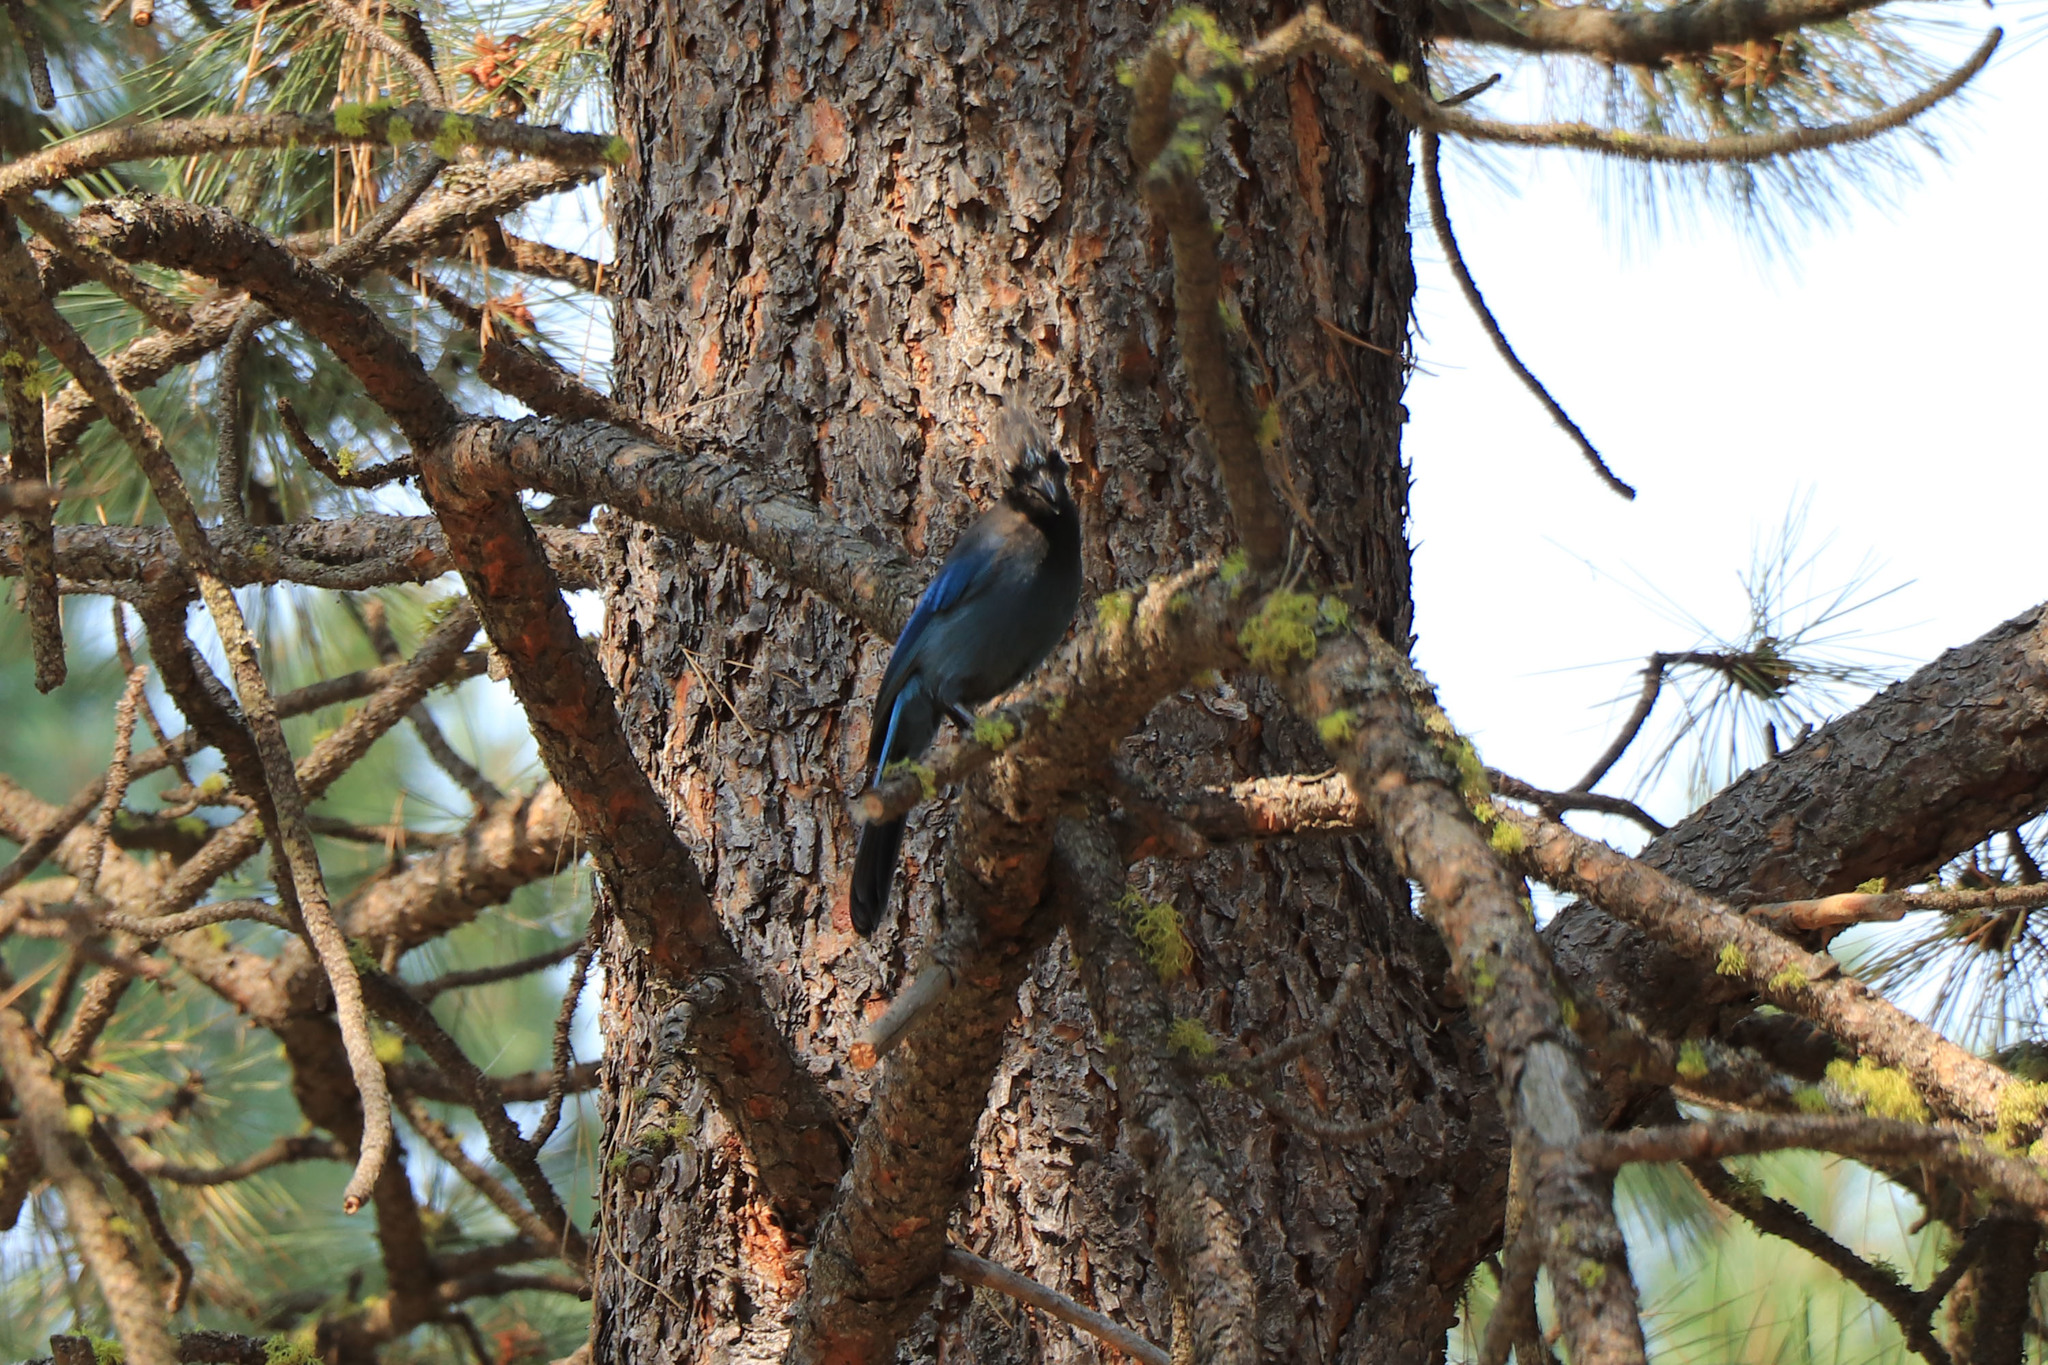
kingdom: Animalia
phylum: Chordata
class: Aves
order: Passeriformes
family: Corvidae
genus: Cyanocitta
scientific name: Cyanocitta stelleri
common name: Steller's jay
